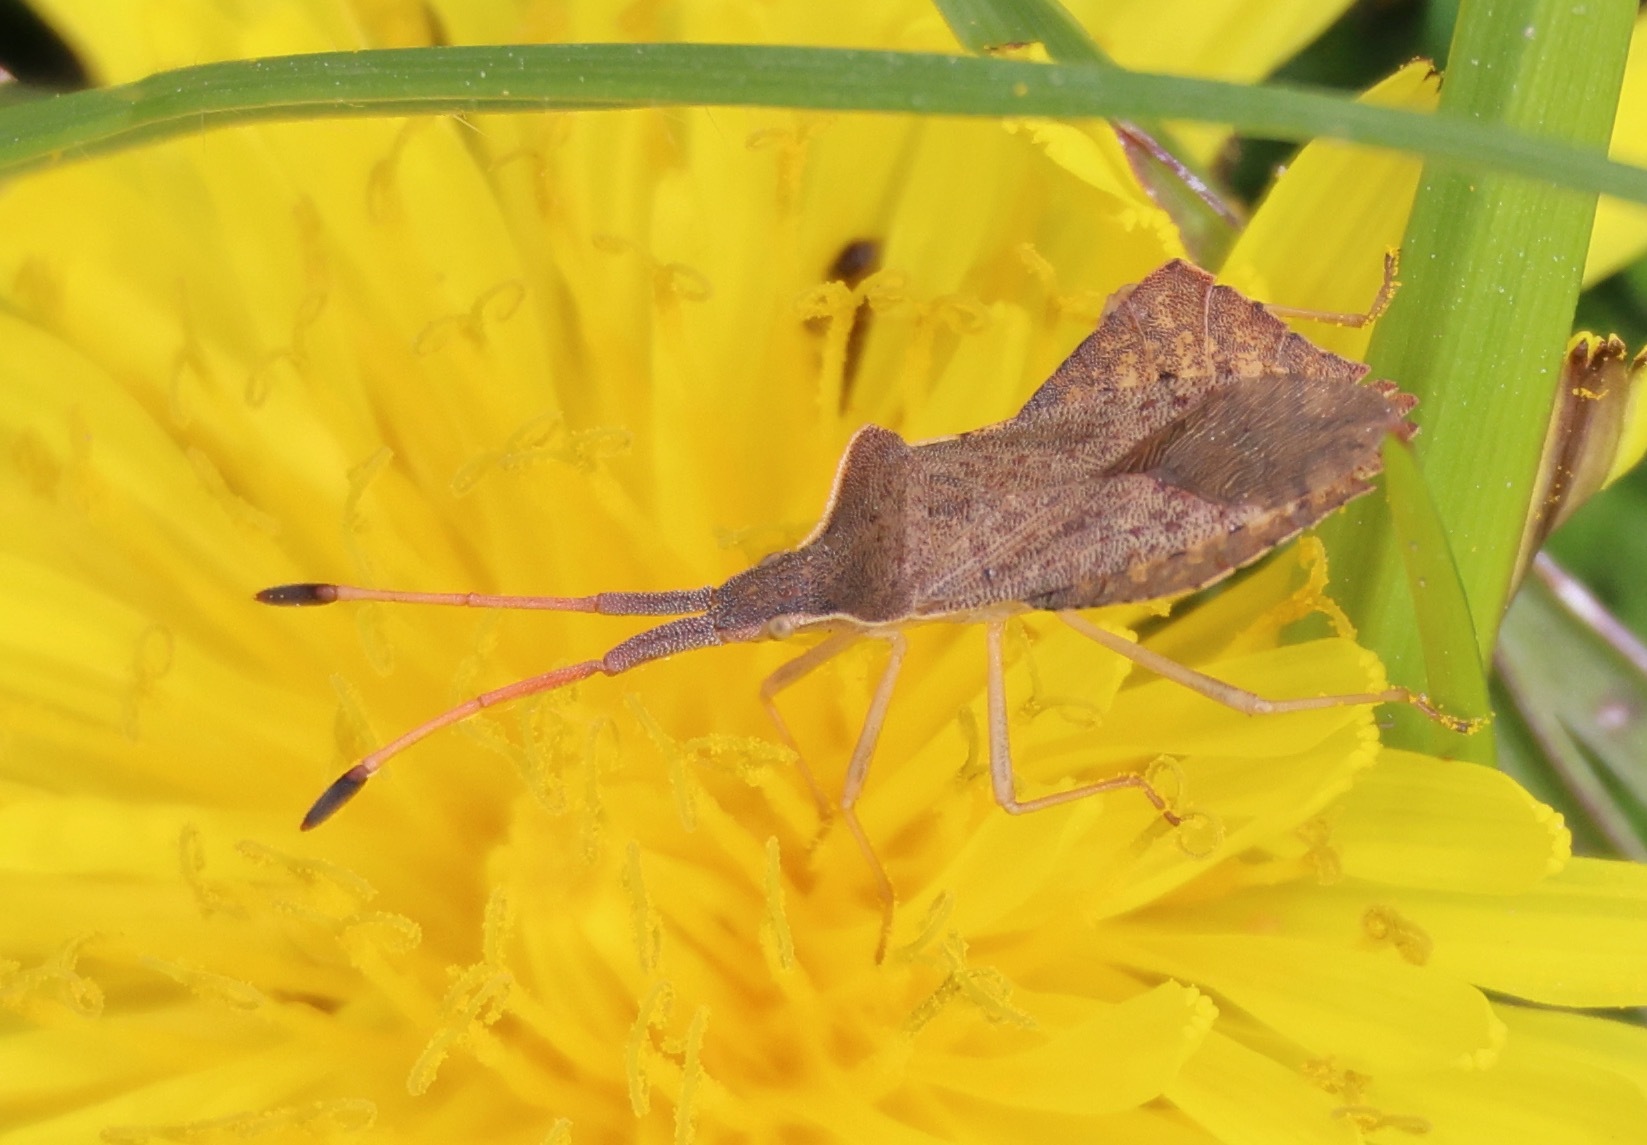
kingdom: Animalia
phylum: Arthropoda
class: Insecta
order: Hemiptera
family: Coreidae
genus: Syromastus
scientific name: Syromastus rhombeus
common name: Rhombic leatherbug
